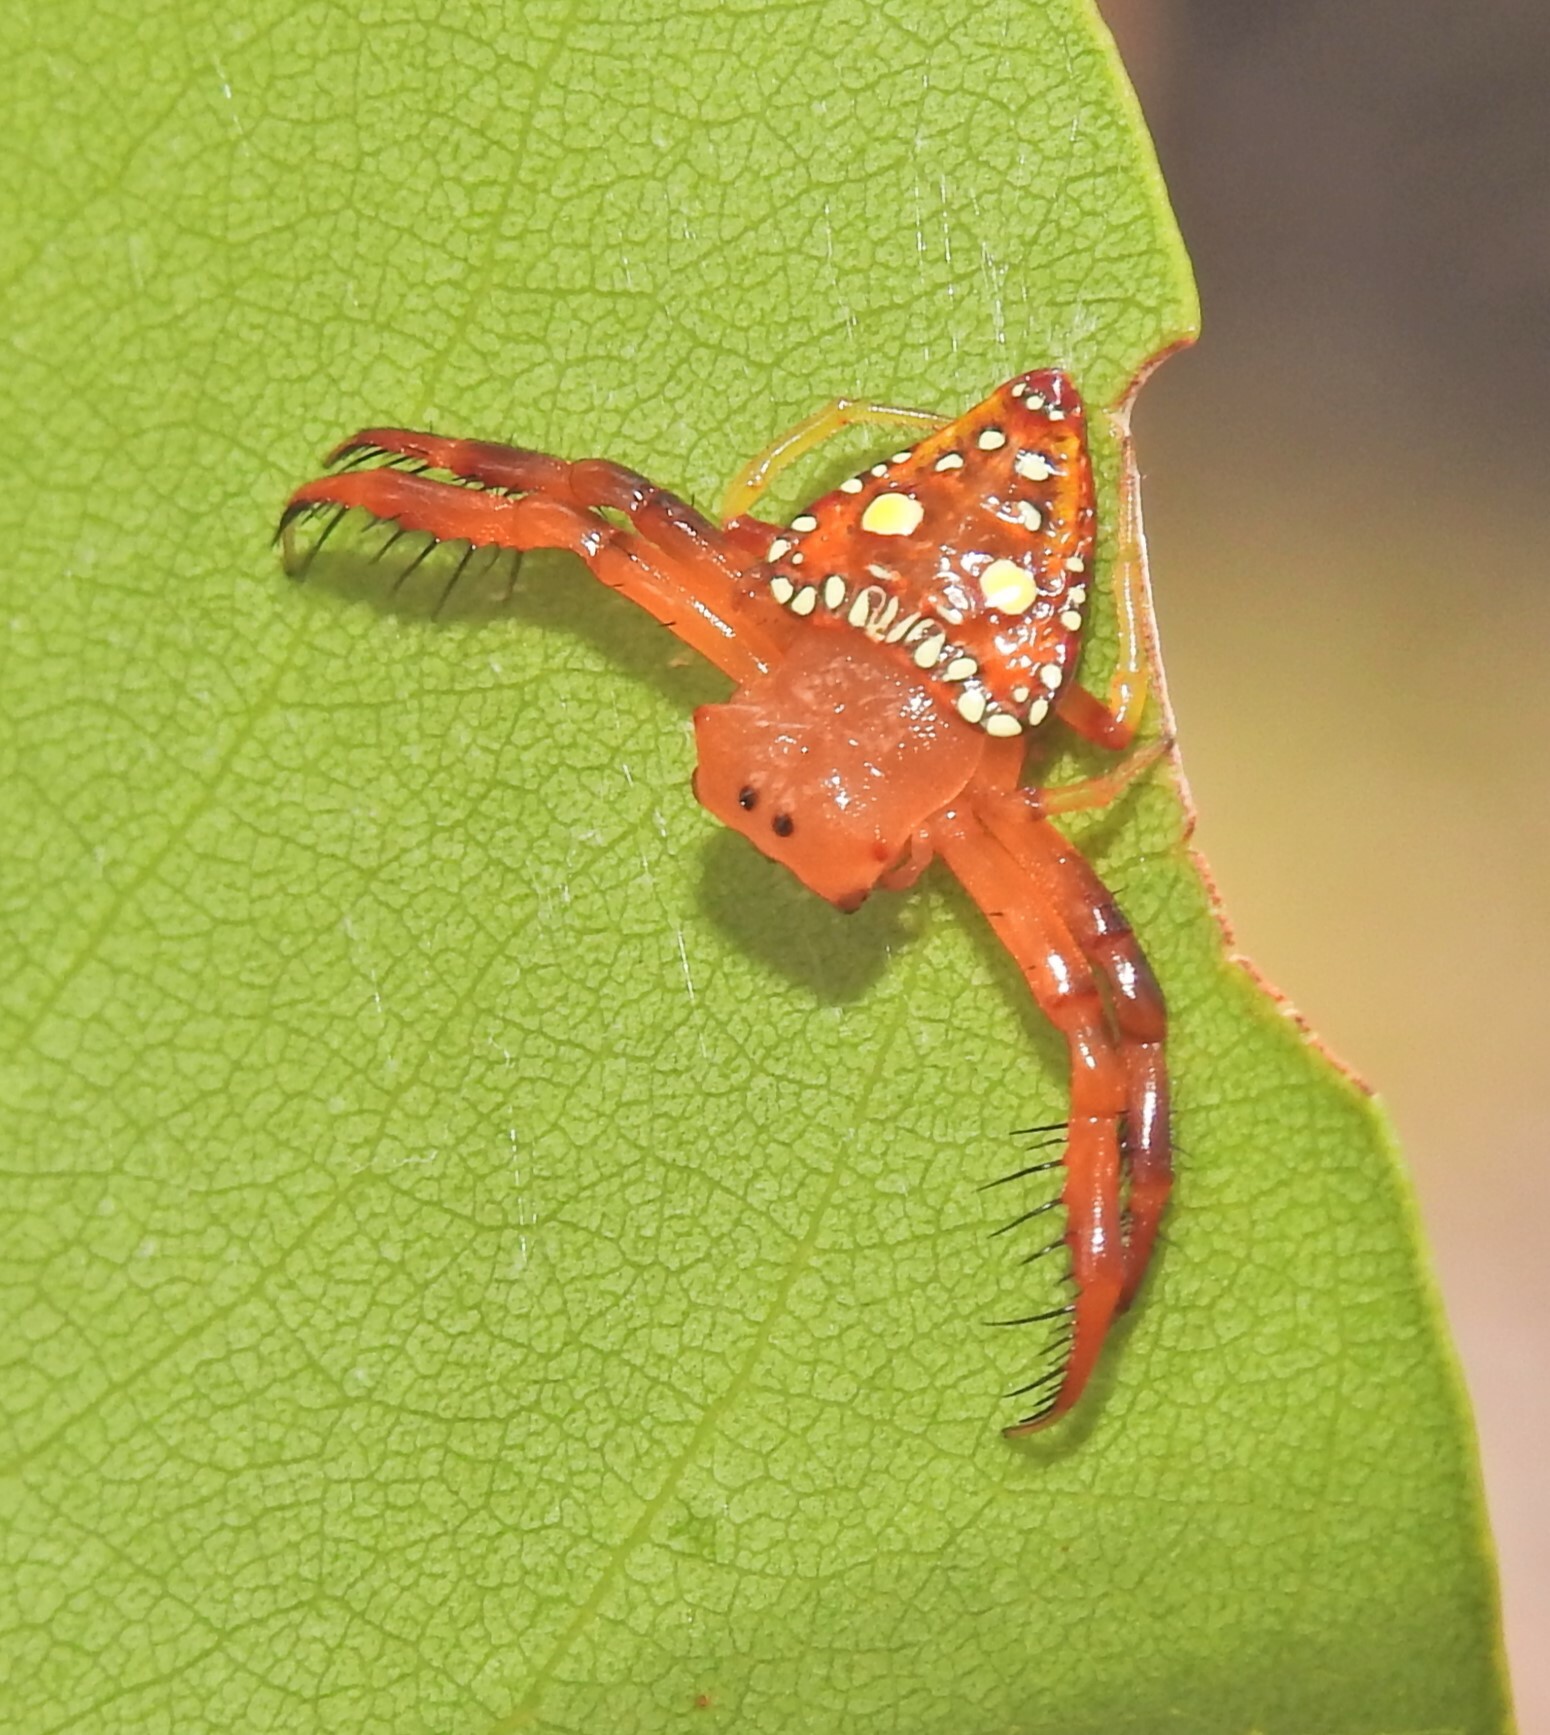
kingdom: Animalia
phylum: Arthropoda
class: Arachnida
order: Araneae
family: Arkyidae
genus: Arkys
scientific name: Arkys lancearius
